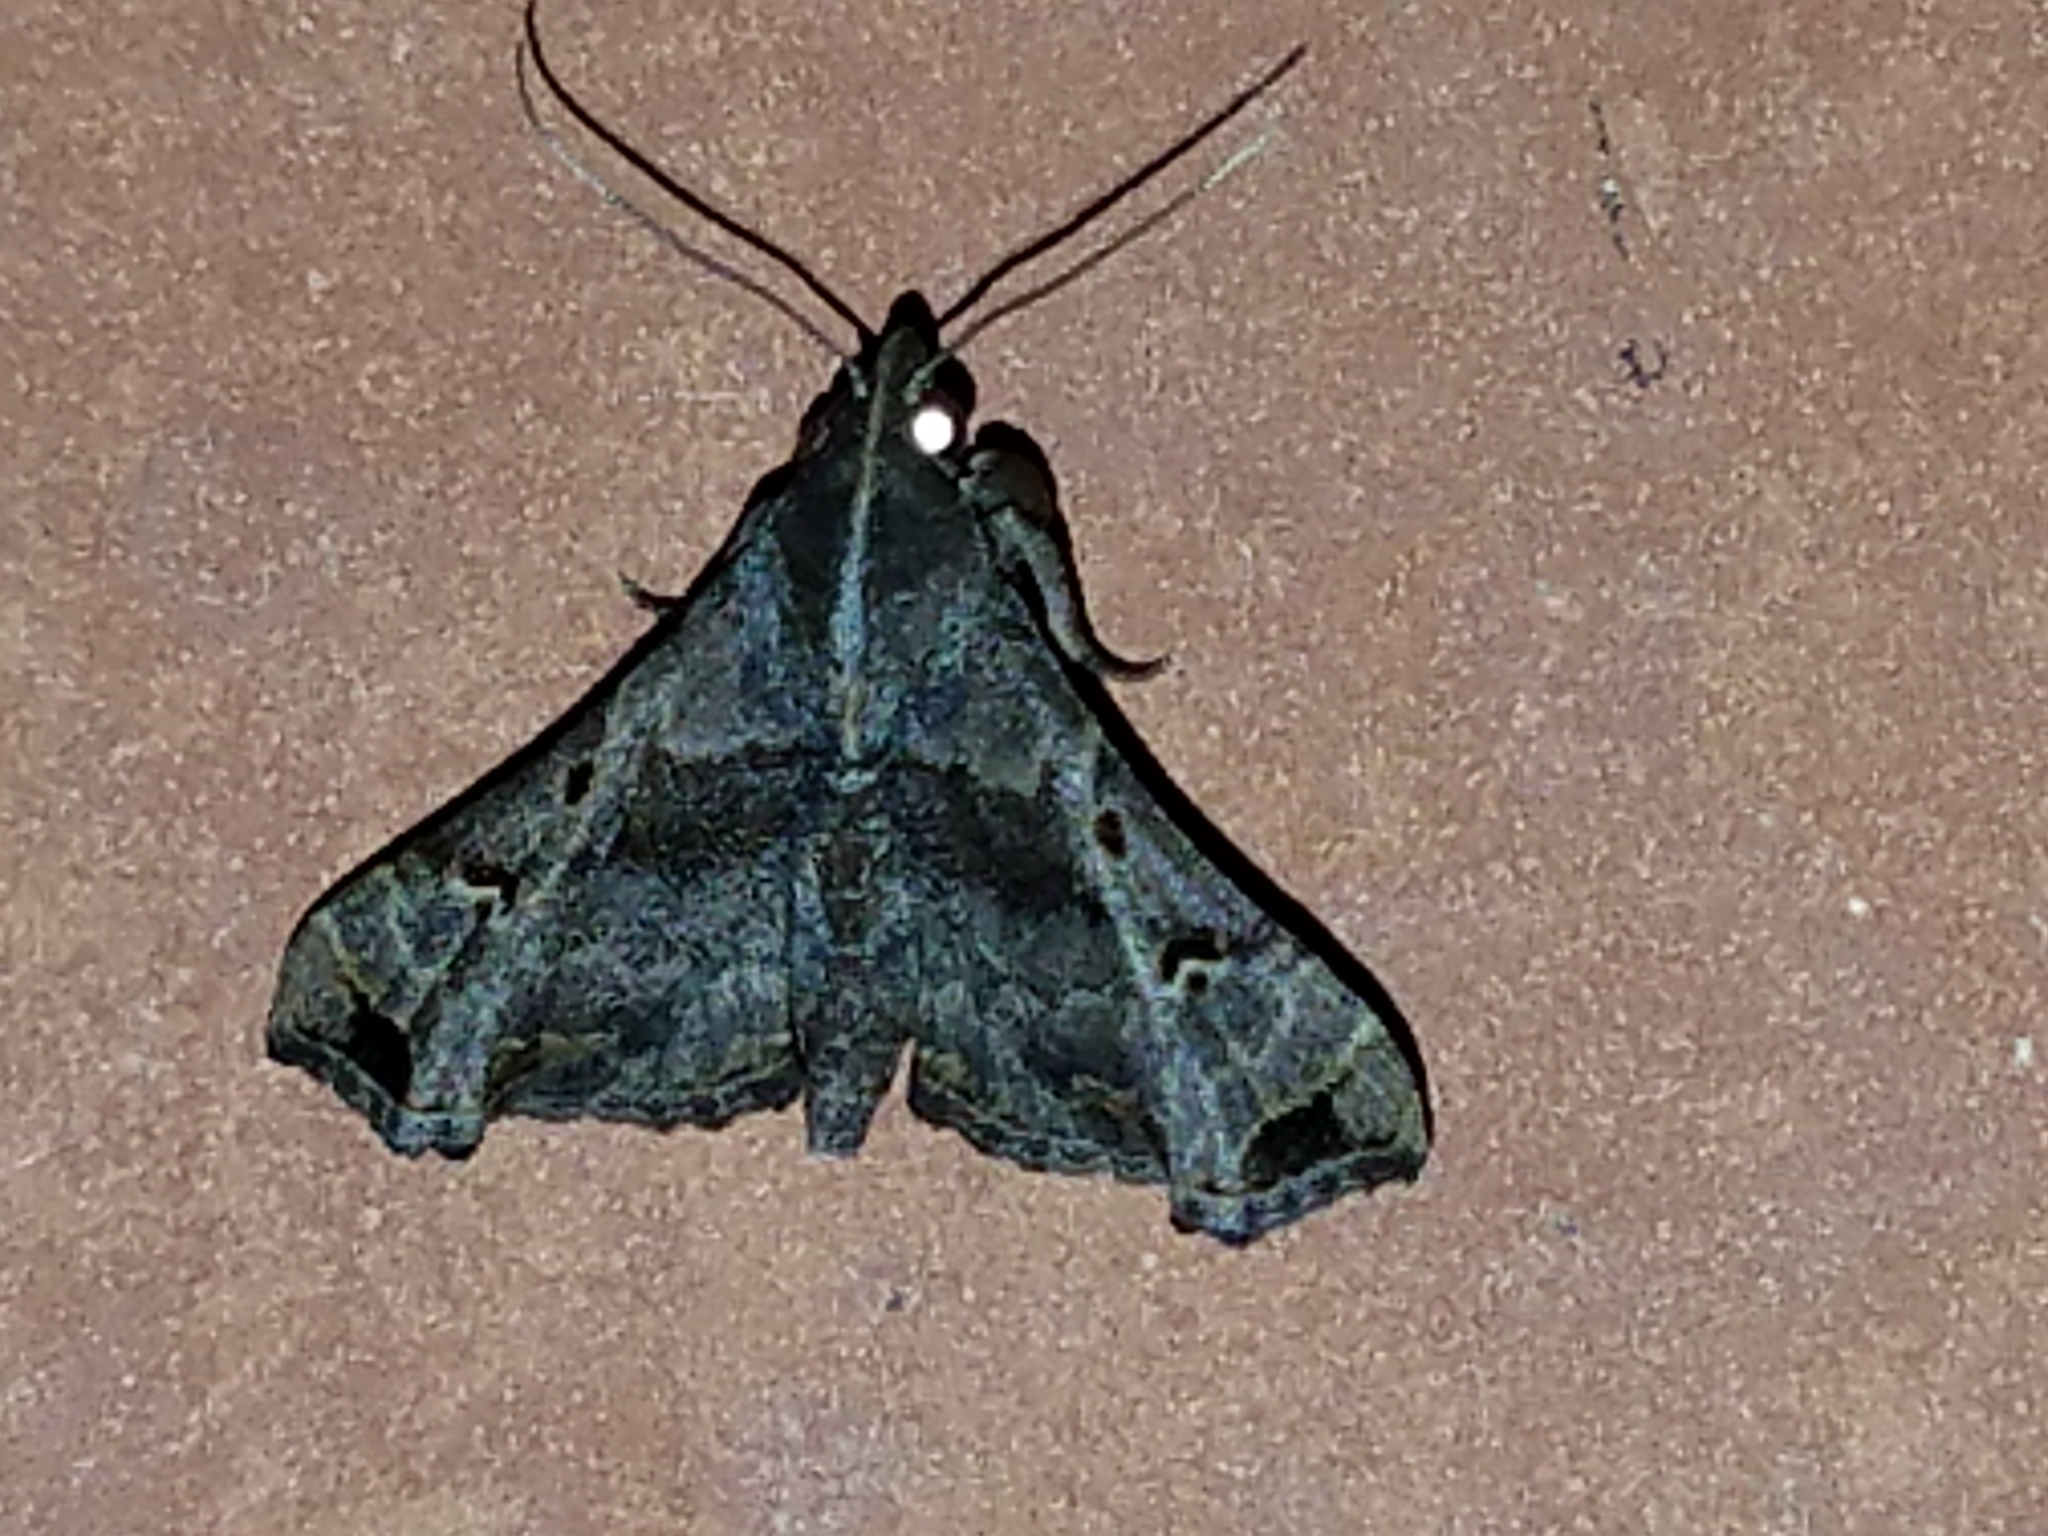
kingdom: Animalia
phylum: Arthropoda
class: Insecta
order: Lepidoptera
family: Erebidae
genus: Palthis
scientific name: Palthis asopialis
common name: Faint-spotted palthis moth
